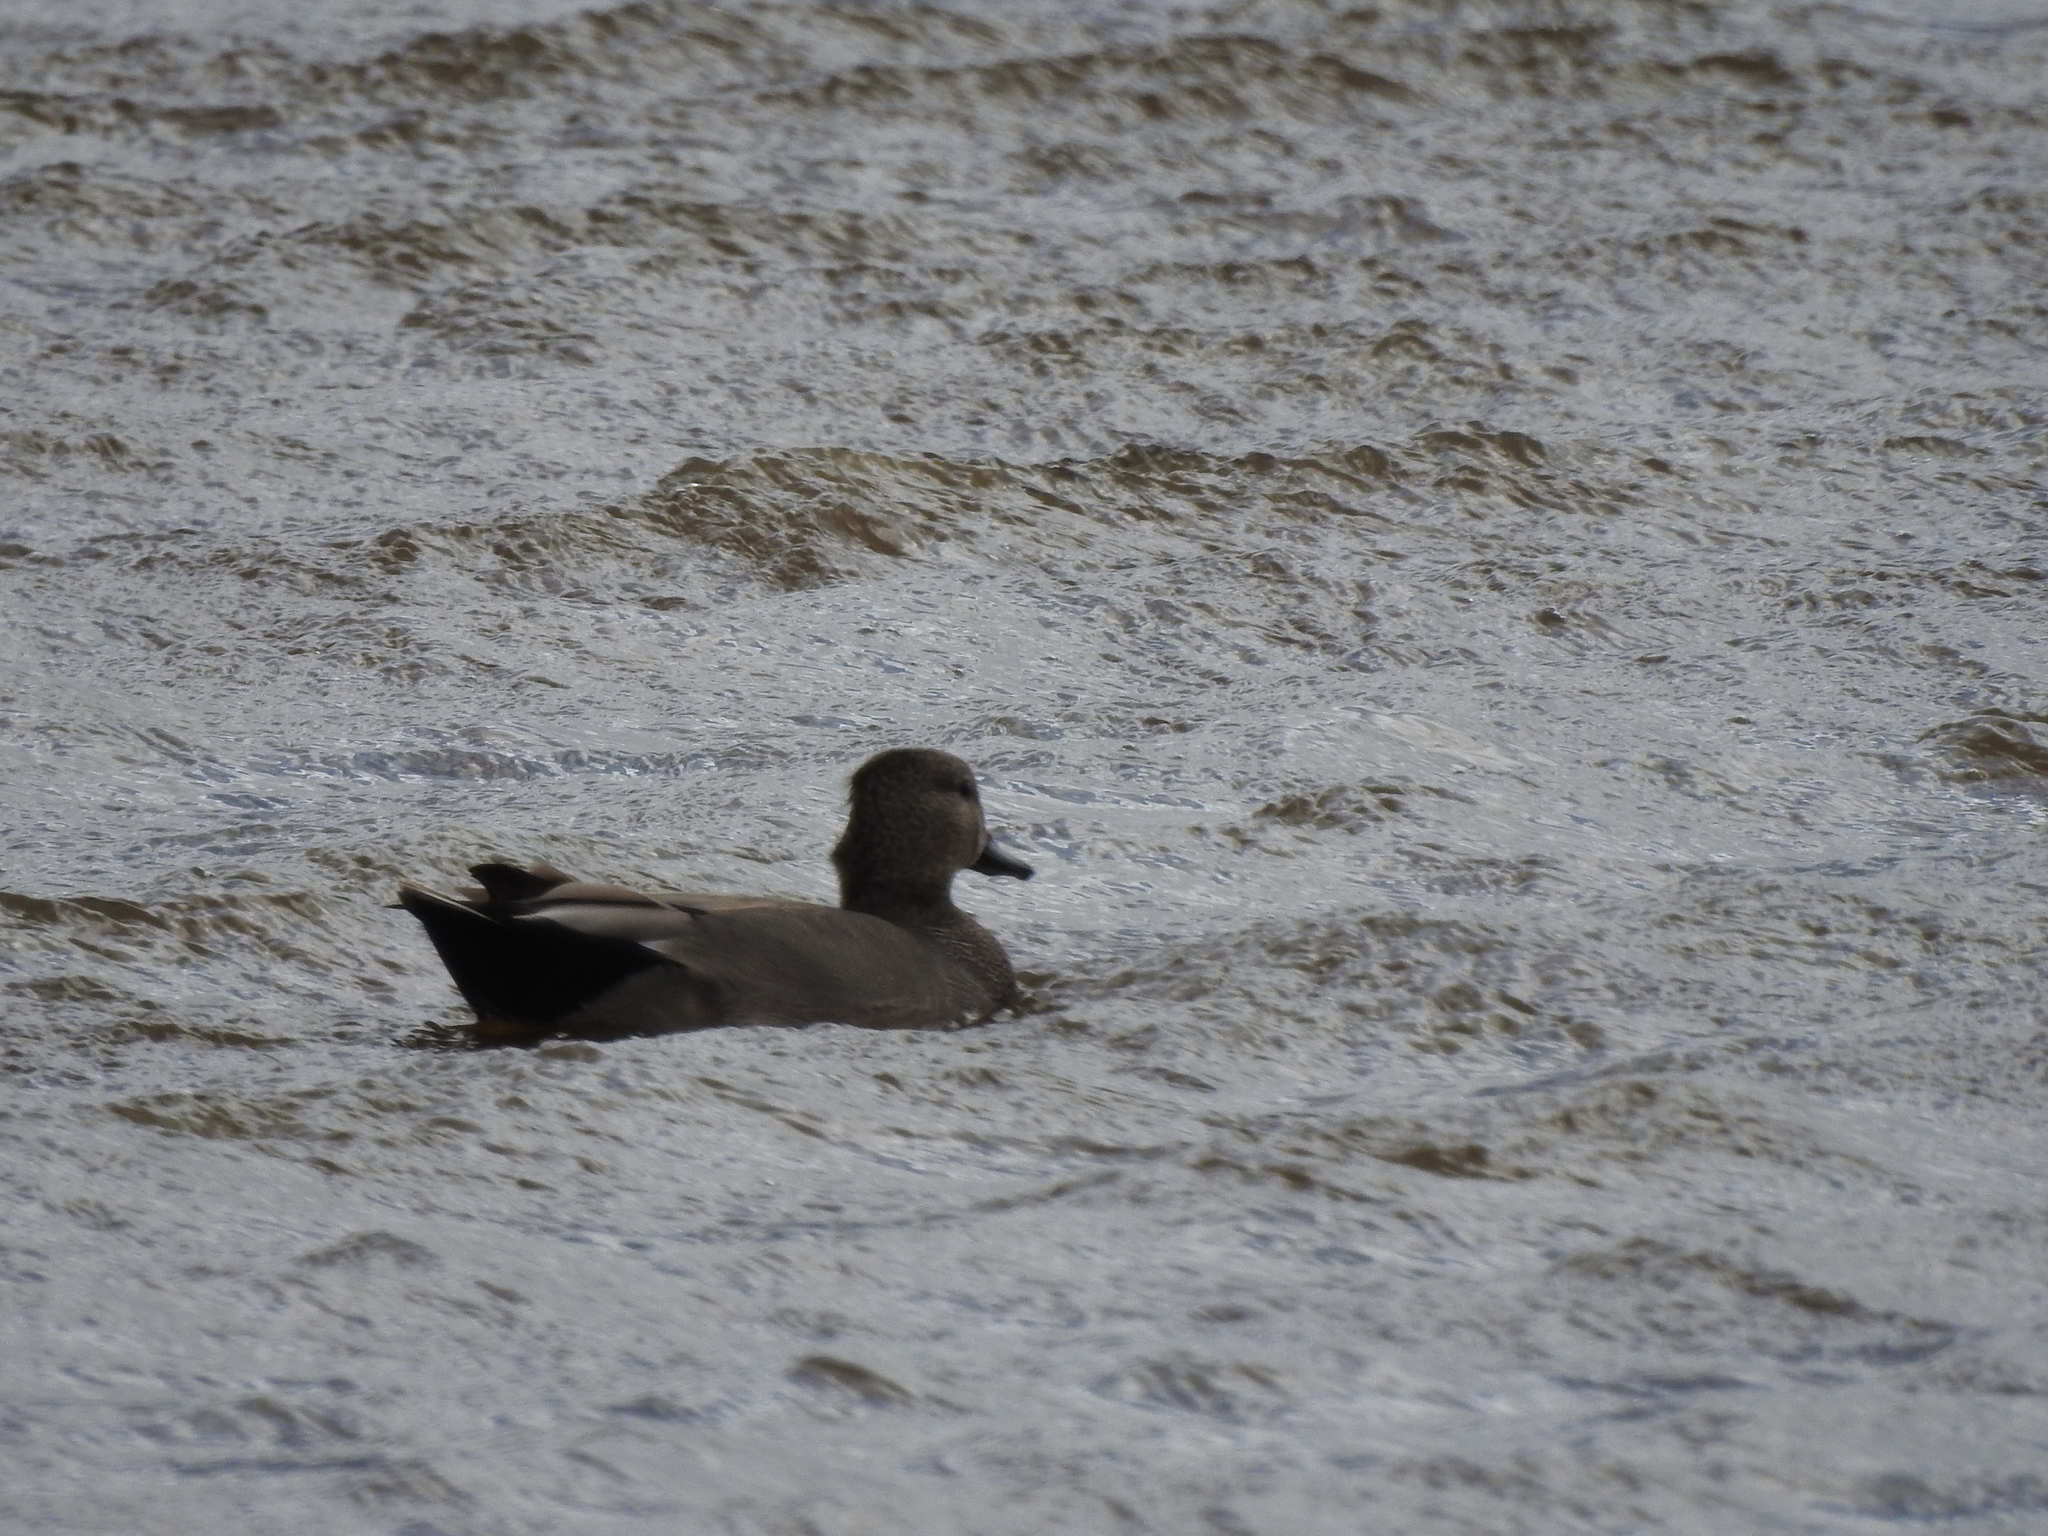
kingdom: Animalia
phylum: Chordata
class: Aves
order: Anseriformes
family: Anatidae
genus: Mareca
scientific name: Mareca strepera
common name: Gadwall
